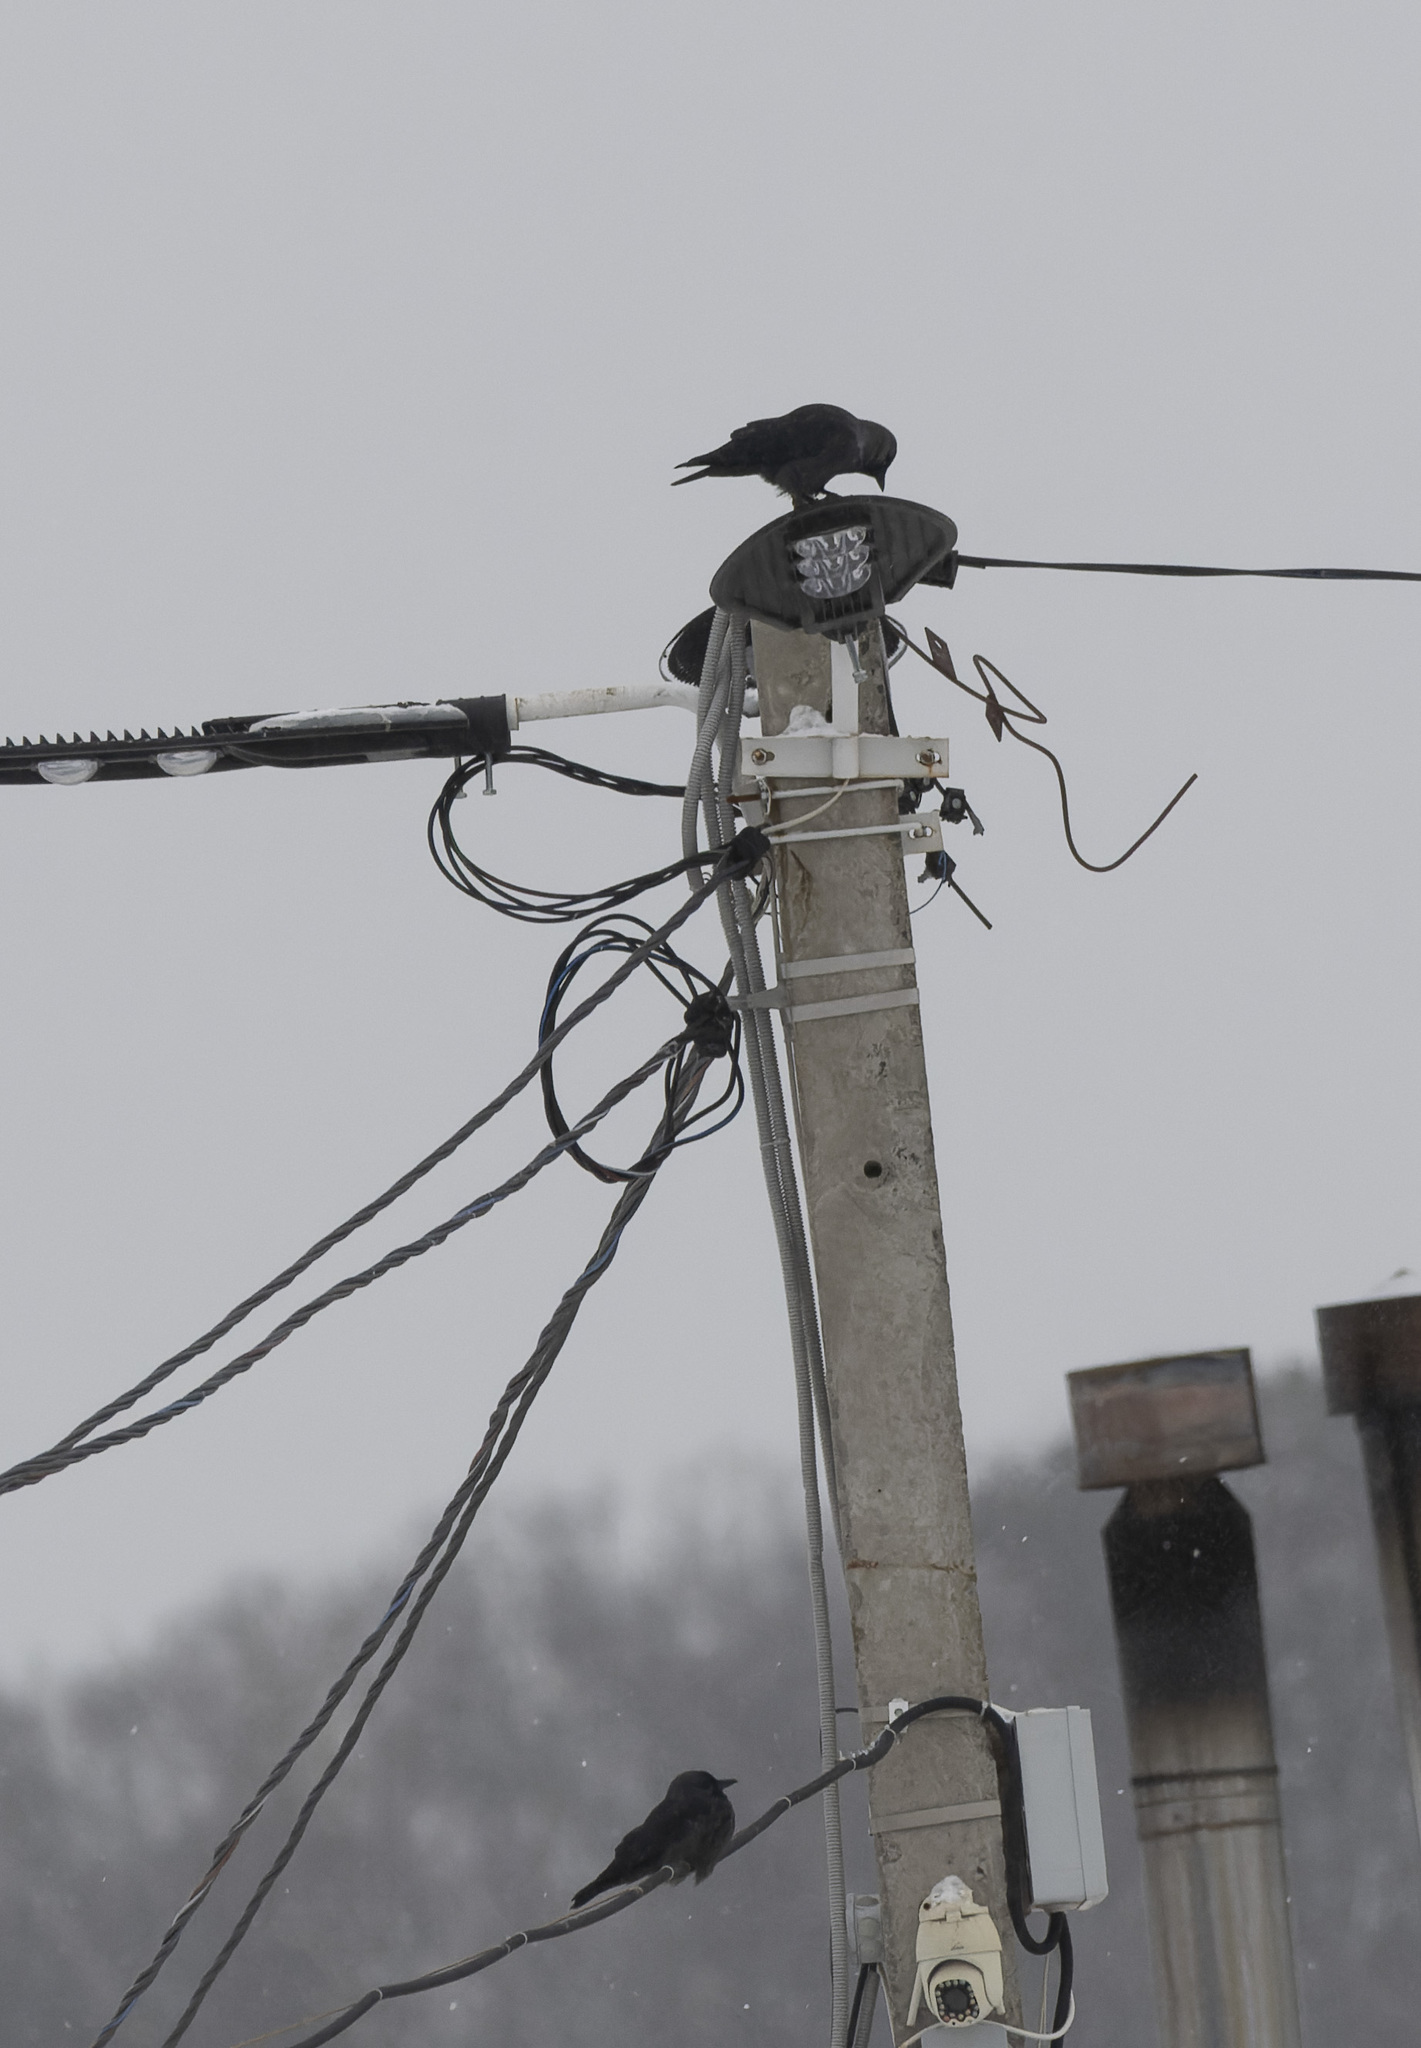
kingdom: Animalia
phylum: Chordata
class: Aves
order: Passeriformes
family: Corvidae
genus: Coloeus
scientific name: Coloeus monedula
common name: Western jackdaw
